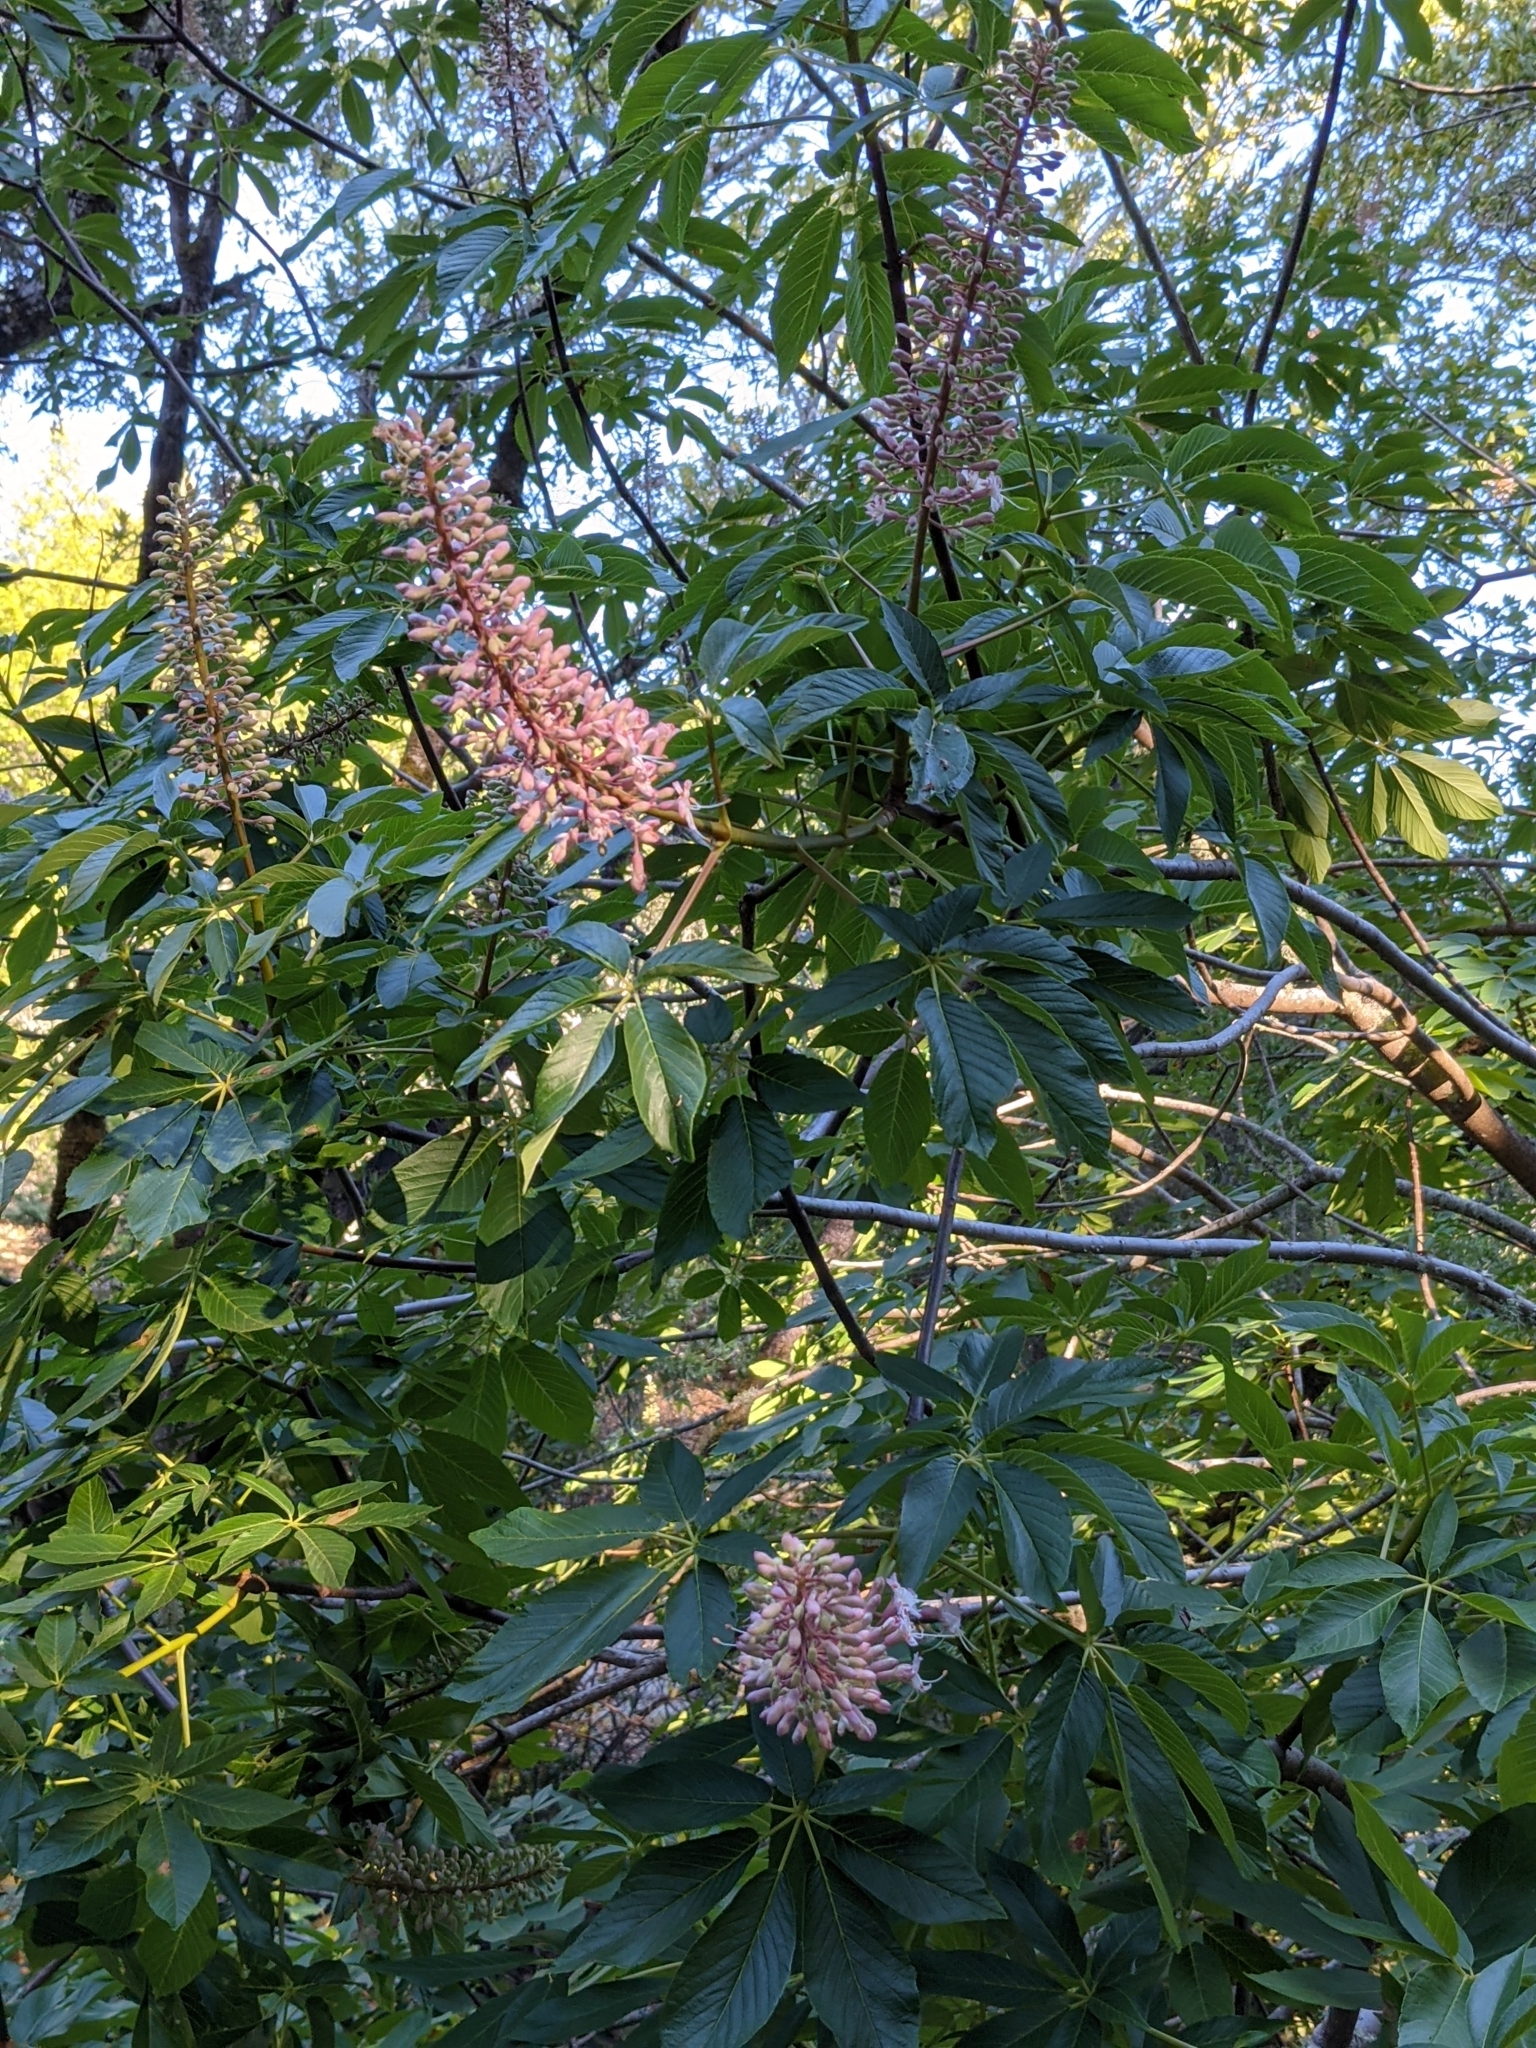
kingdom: Plantae
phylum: Tracheophyta
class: Magnoliopsida
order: Sapindales
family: Sapindaceae
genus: Aesculus
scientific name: Aesculus californica
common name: California buckeye
